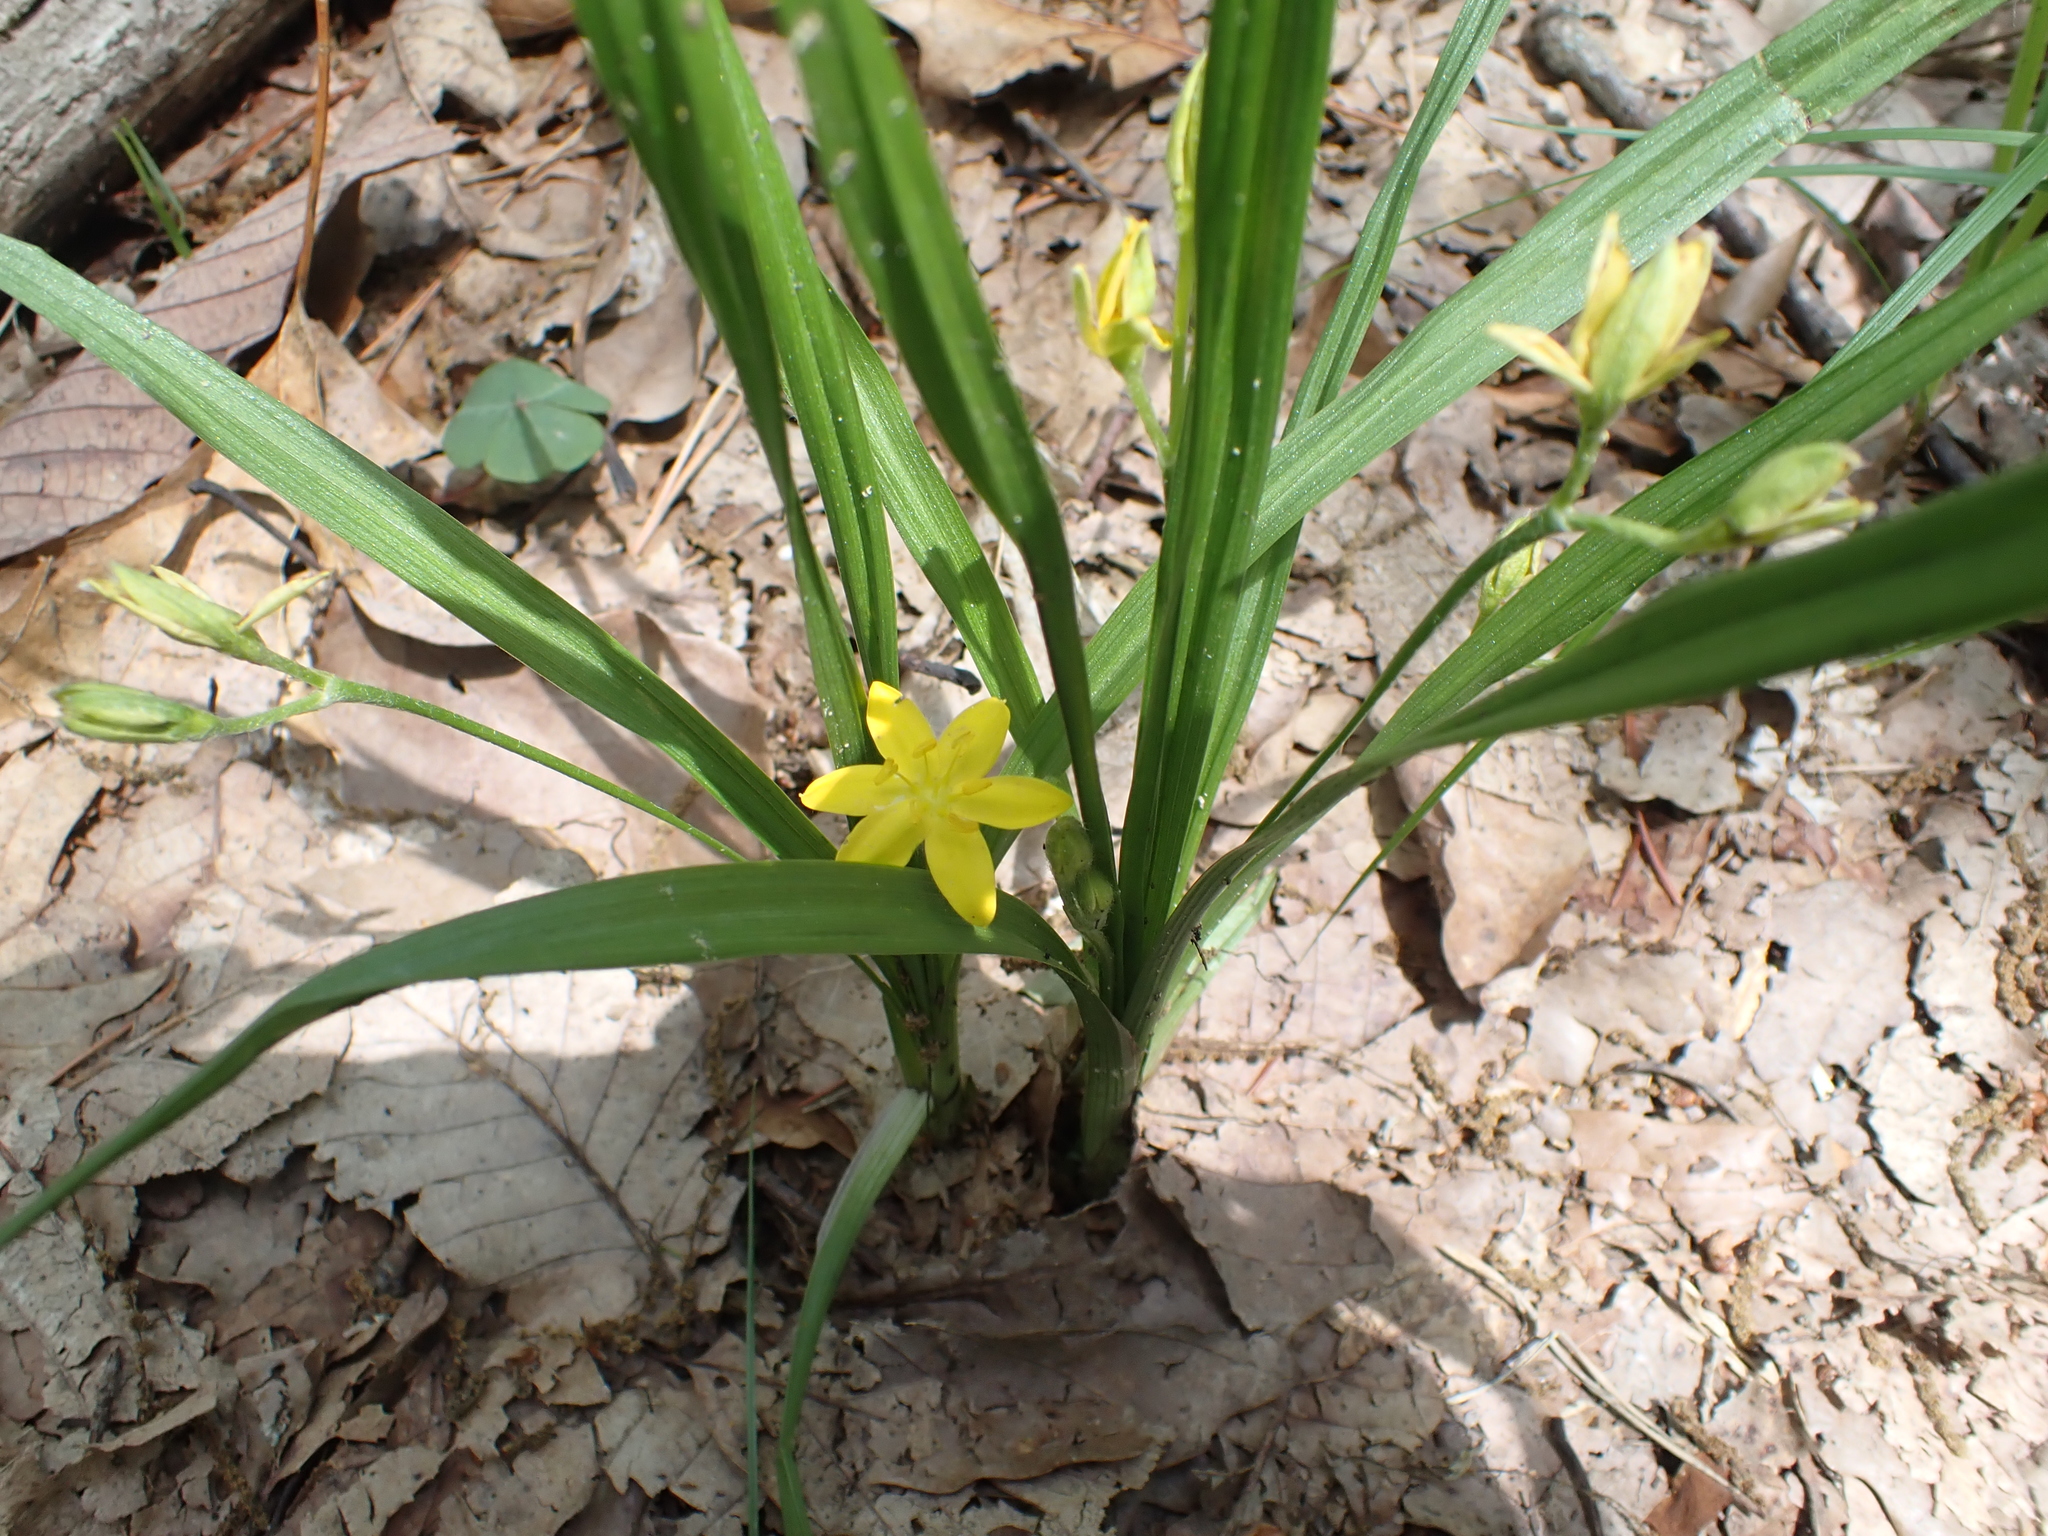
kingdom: Plantae
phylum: Tracheophyta
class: Liliopsida
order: Asparagales
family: Hypoxidaceae
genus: Hypoxis
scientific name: Hypoxis hirsuta
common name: Common goldstar
